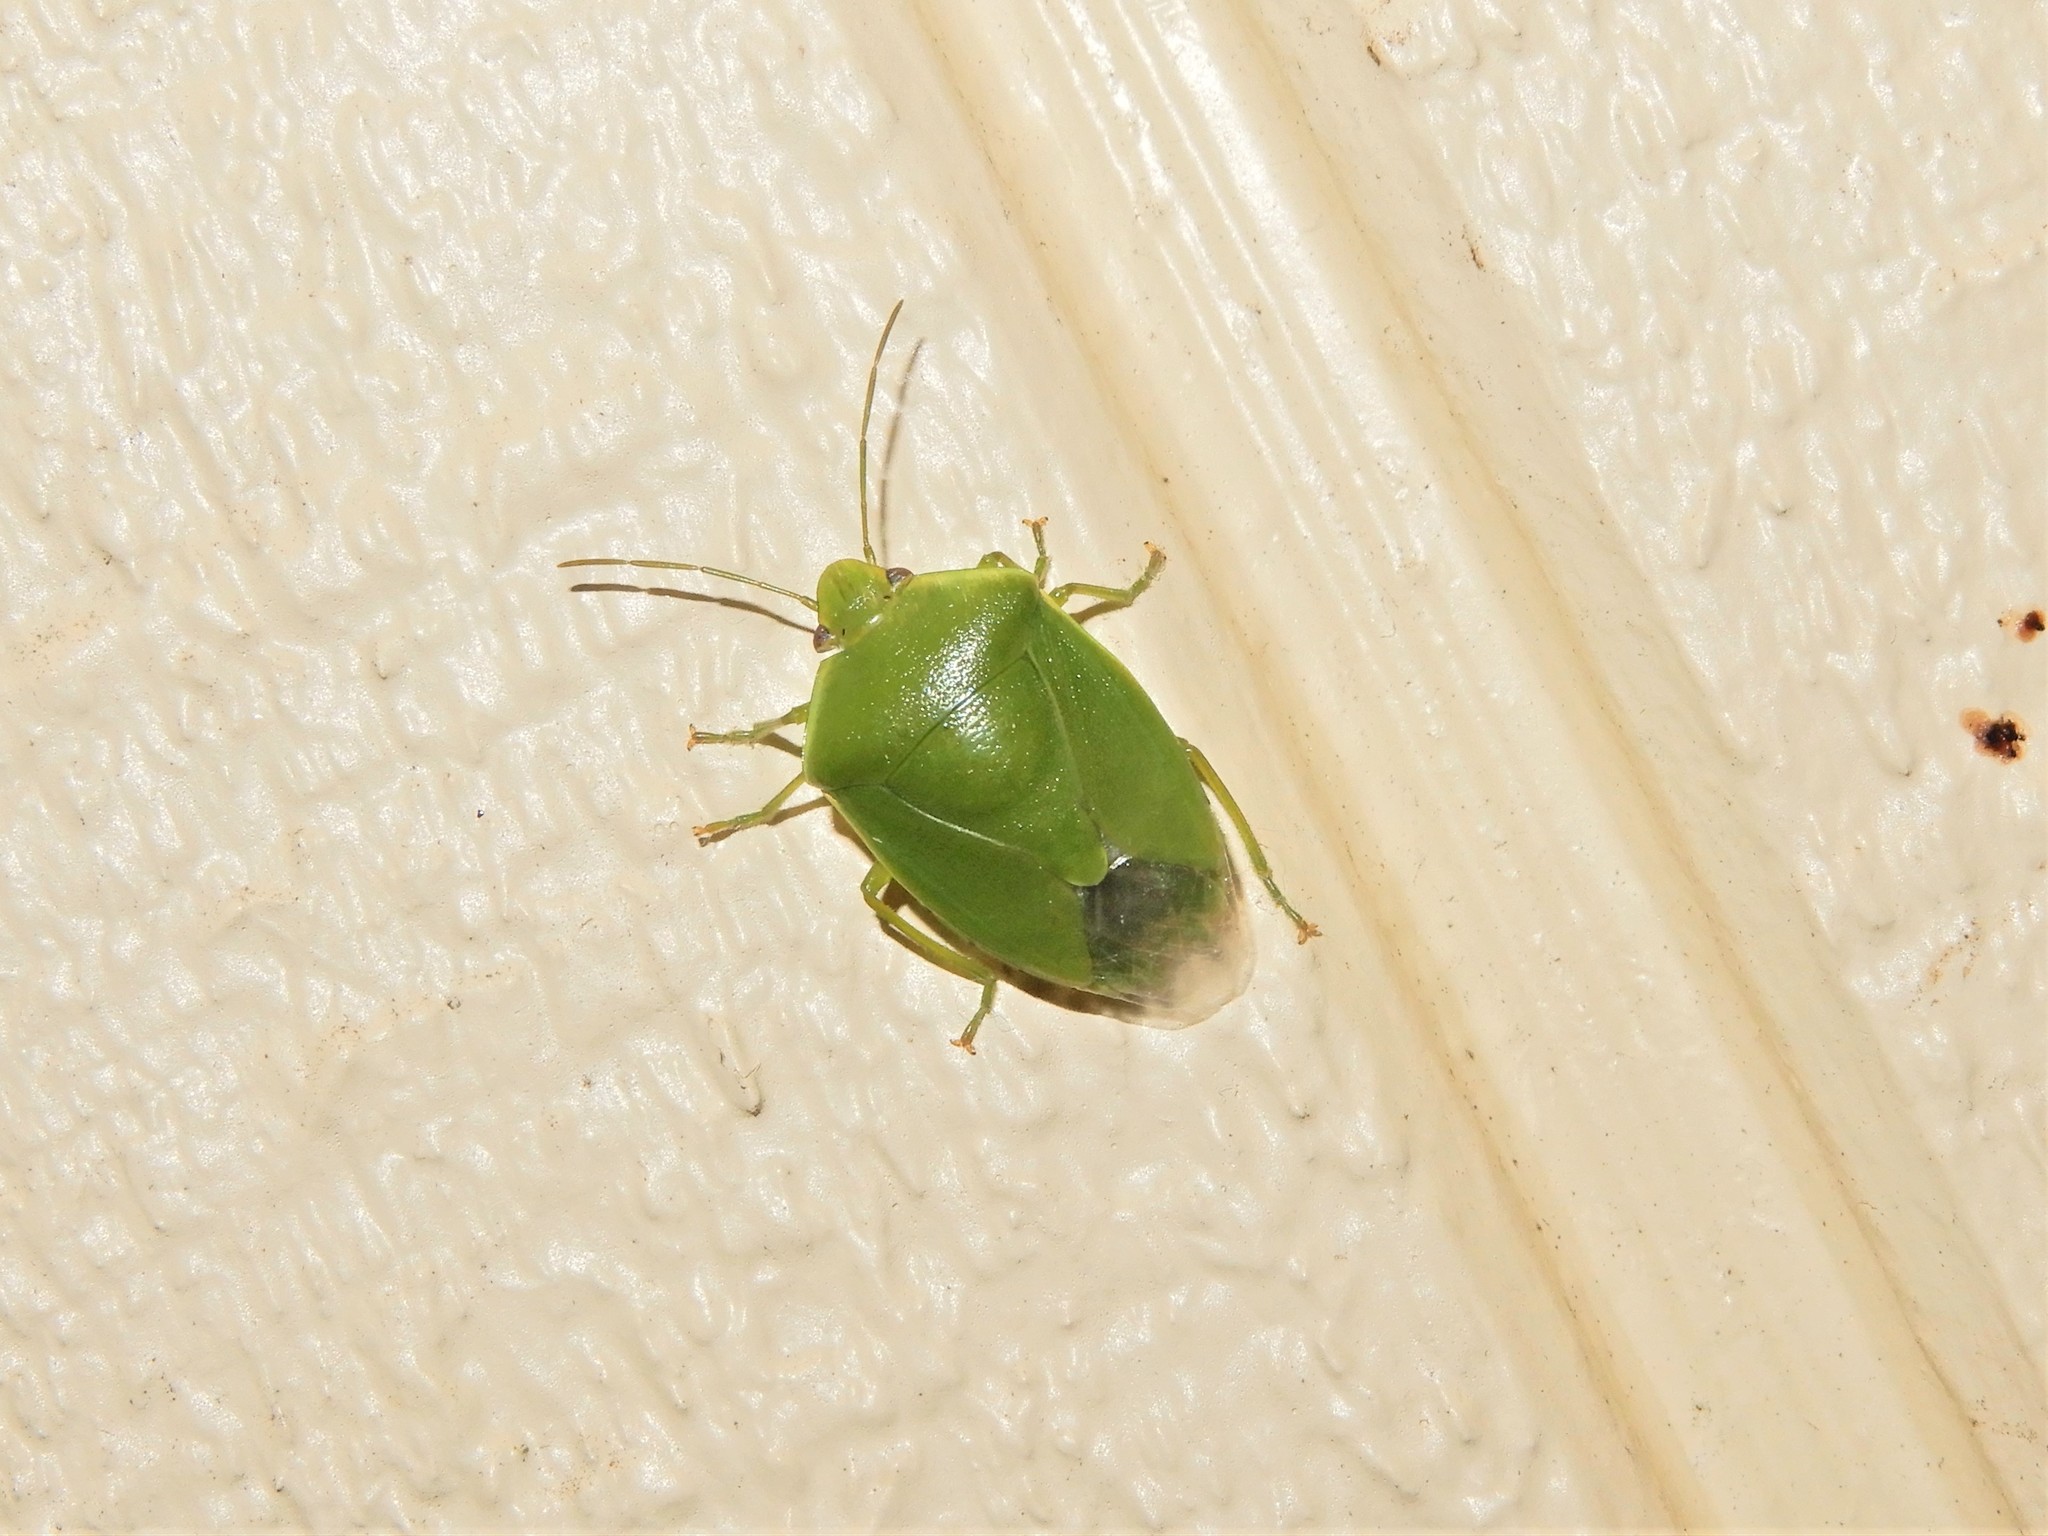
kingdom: Animalia
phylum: Arthropoda
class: Insecta
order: Hemiptera
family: Pentatomidae
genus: Glaucias
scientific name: Glaucias amyota
